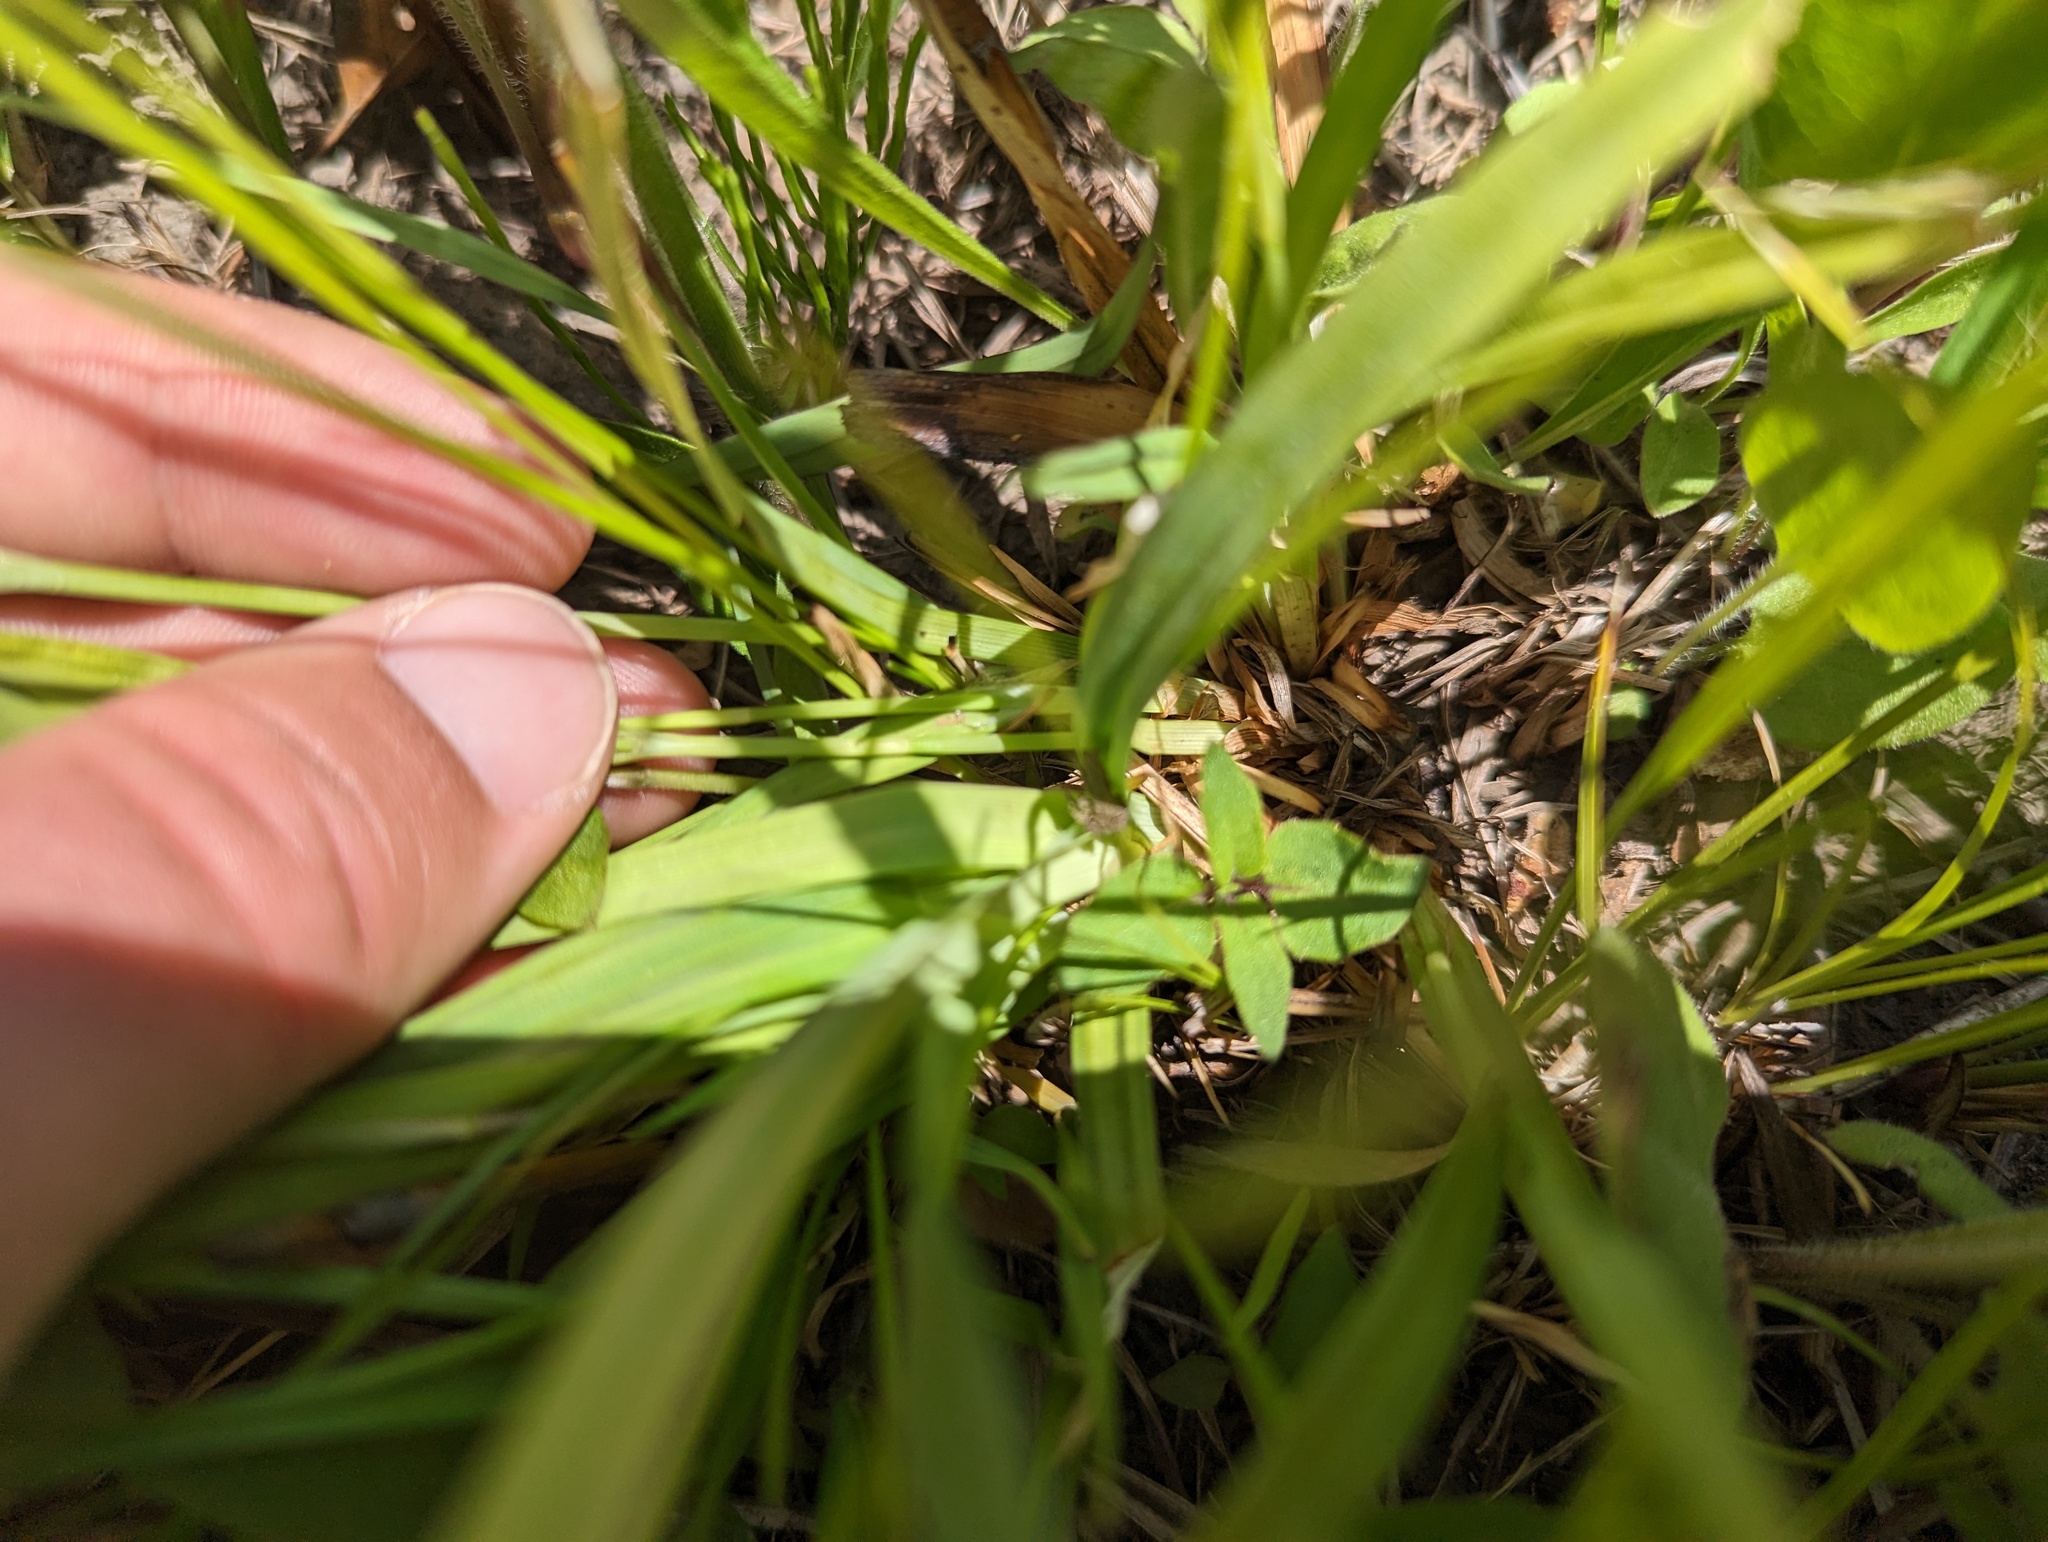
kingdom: Plantae
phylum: Tracheophyta
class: Liliopsida
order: Poales
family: Cyperaceae
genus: Carex
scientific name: Carex granularis
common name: Granular sedge
